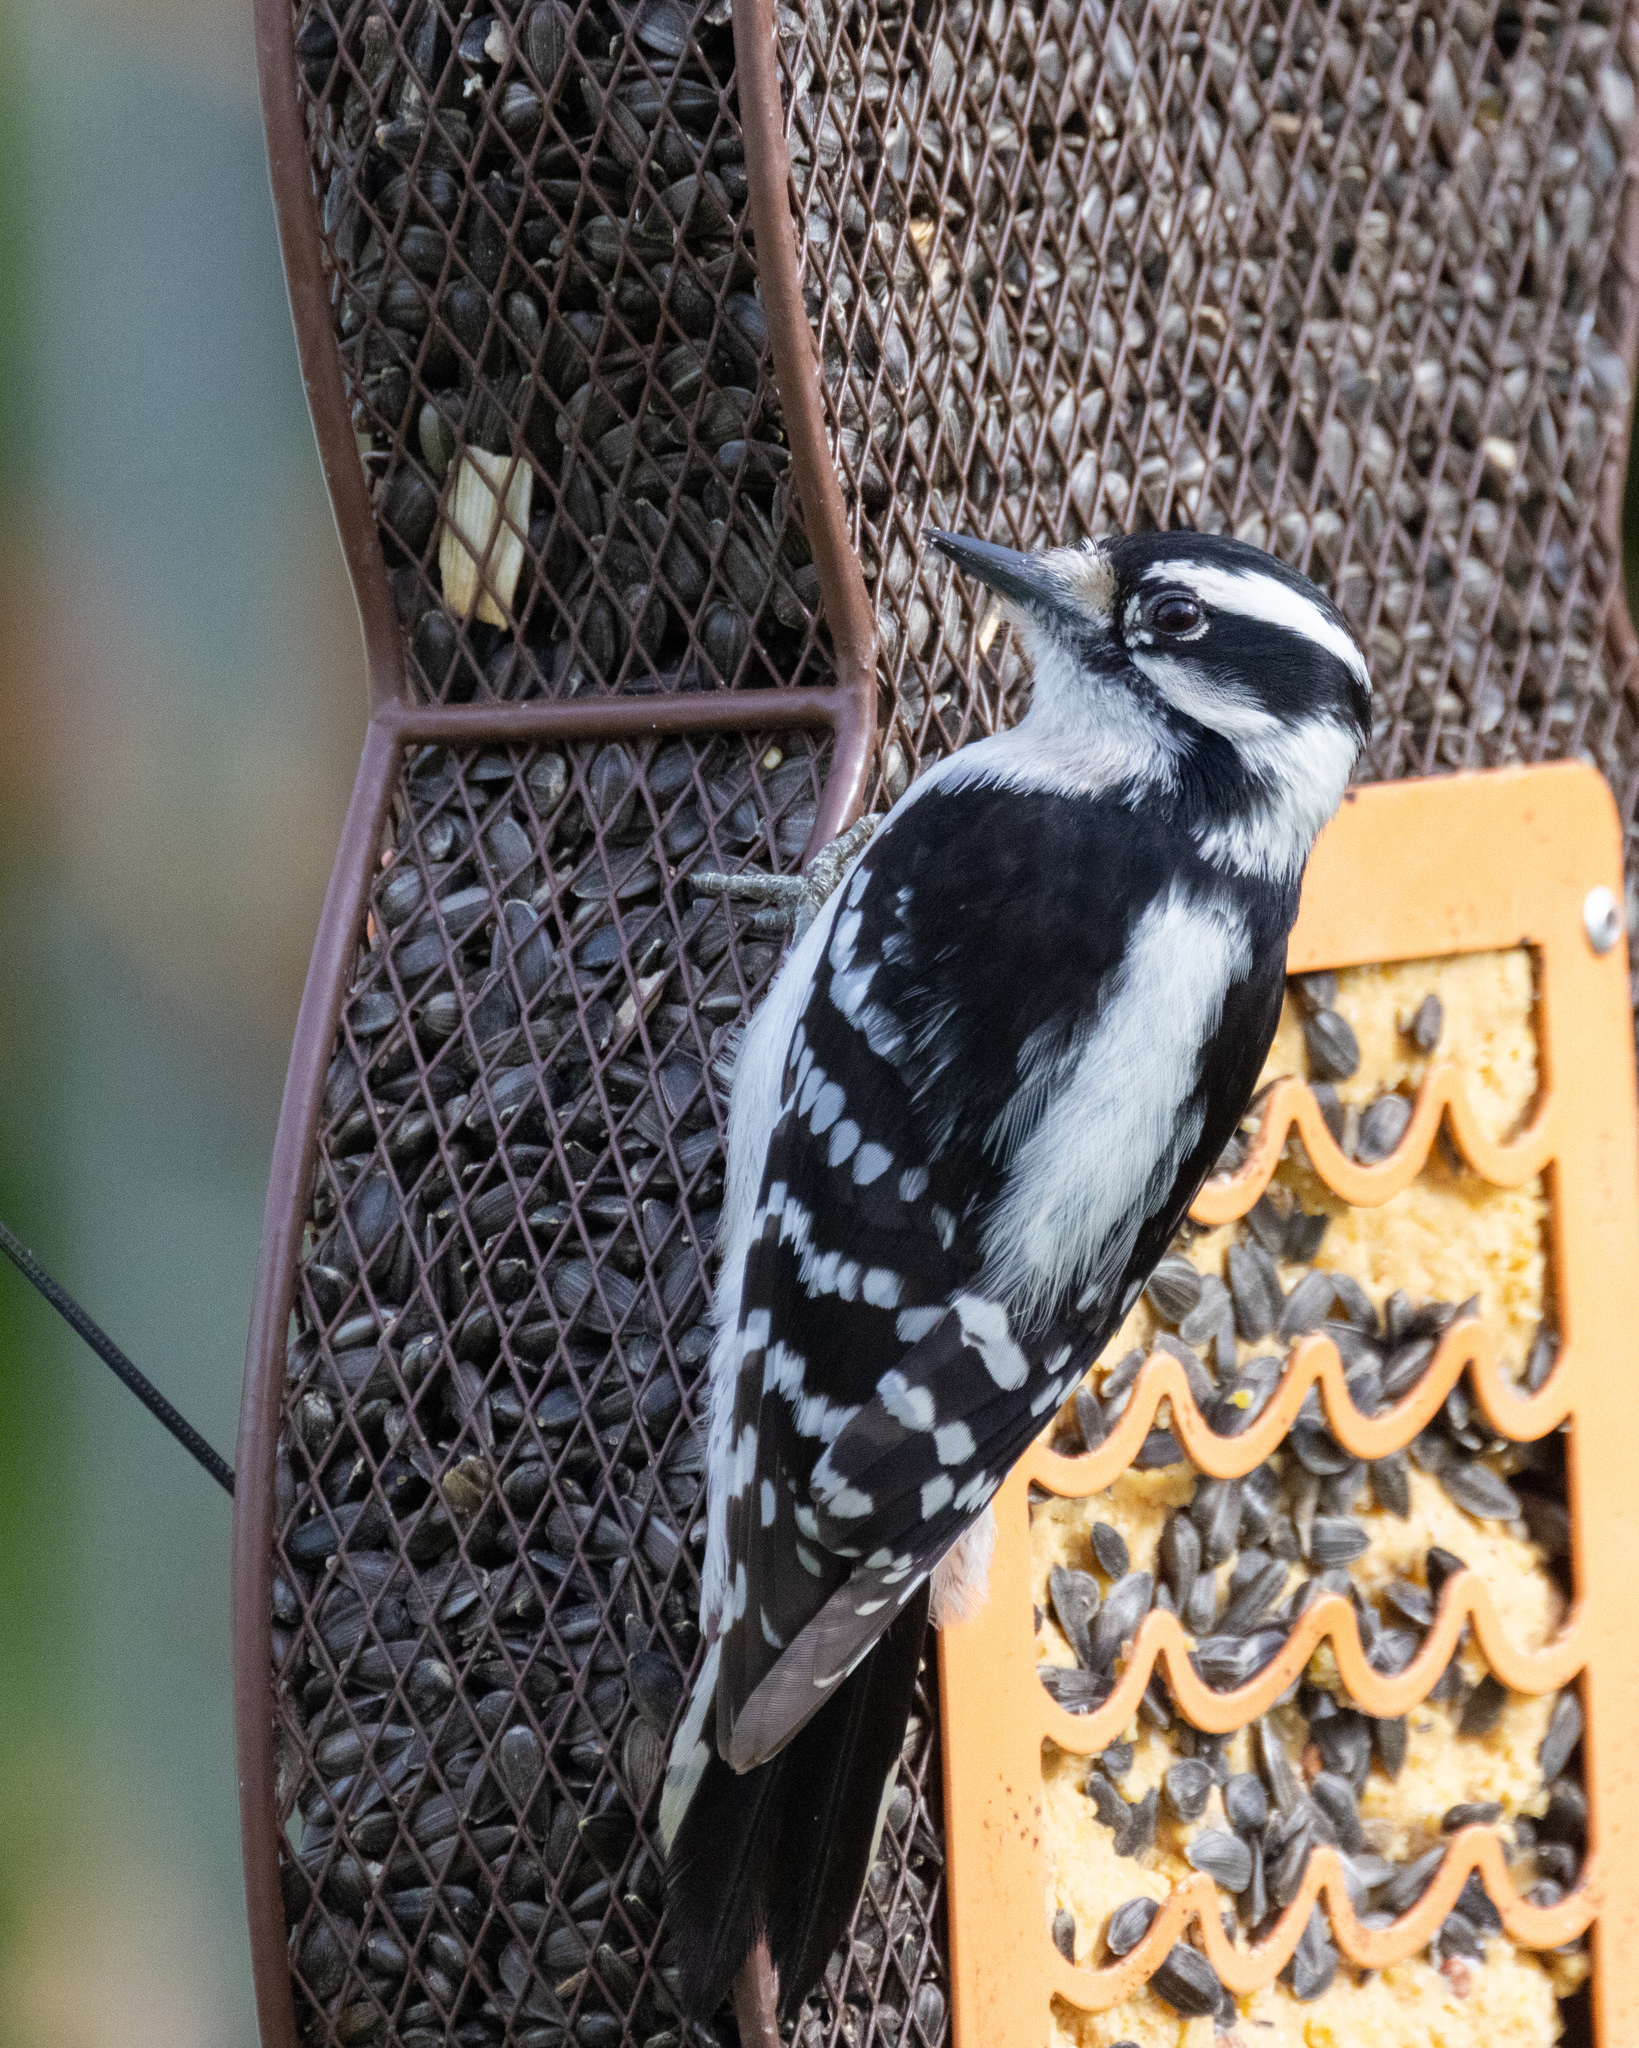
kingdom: Animalia
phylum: Chordata
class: Aves
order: Piciformes
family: Picidae
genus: Dryobates
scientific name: Dryobates pubescens
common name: Downy woodpecker
